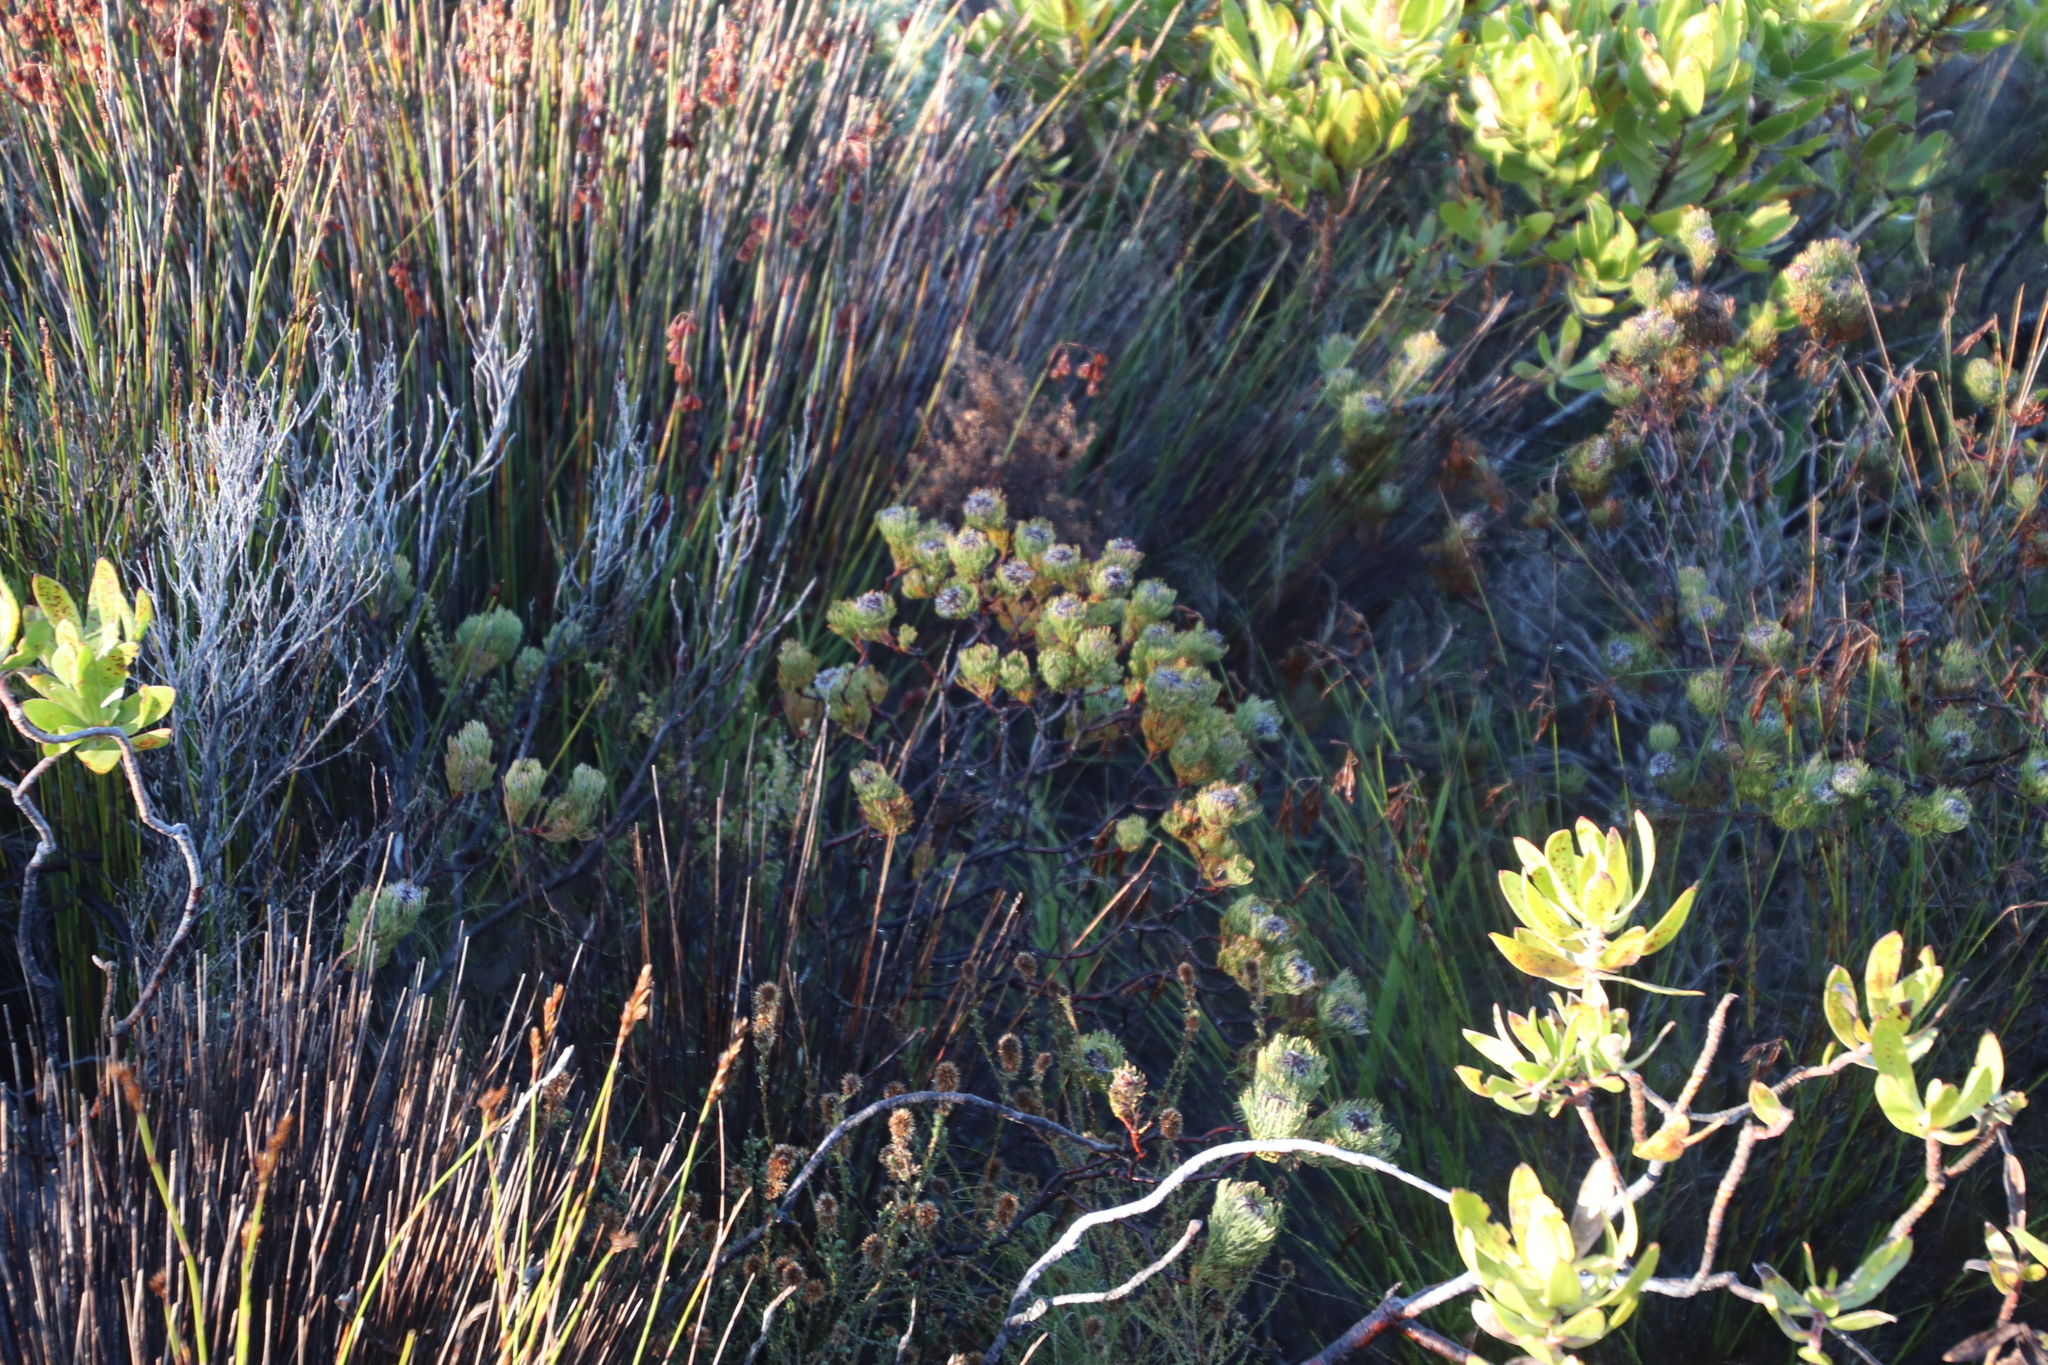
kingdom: Plantae
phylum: Tracheophyta
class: Magnoliopsida
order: Proteales
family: Proteaceae
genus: Serruria
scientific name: Serruria villosa
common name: Golden spiderhead
